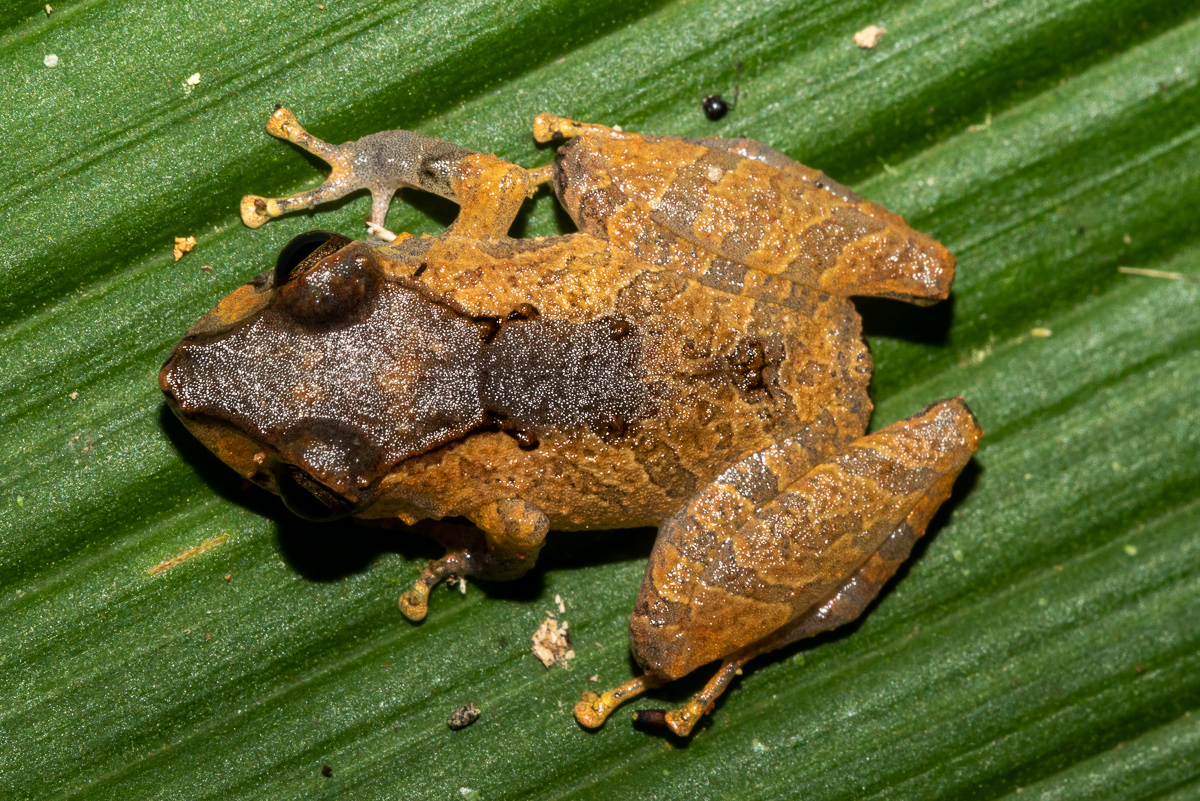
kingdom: Animalia
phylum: Chordata
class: Amphibia
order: Anura
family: Craugastoridae
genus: Pristimantis
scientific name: Pristimantis kichwarum
